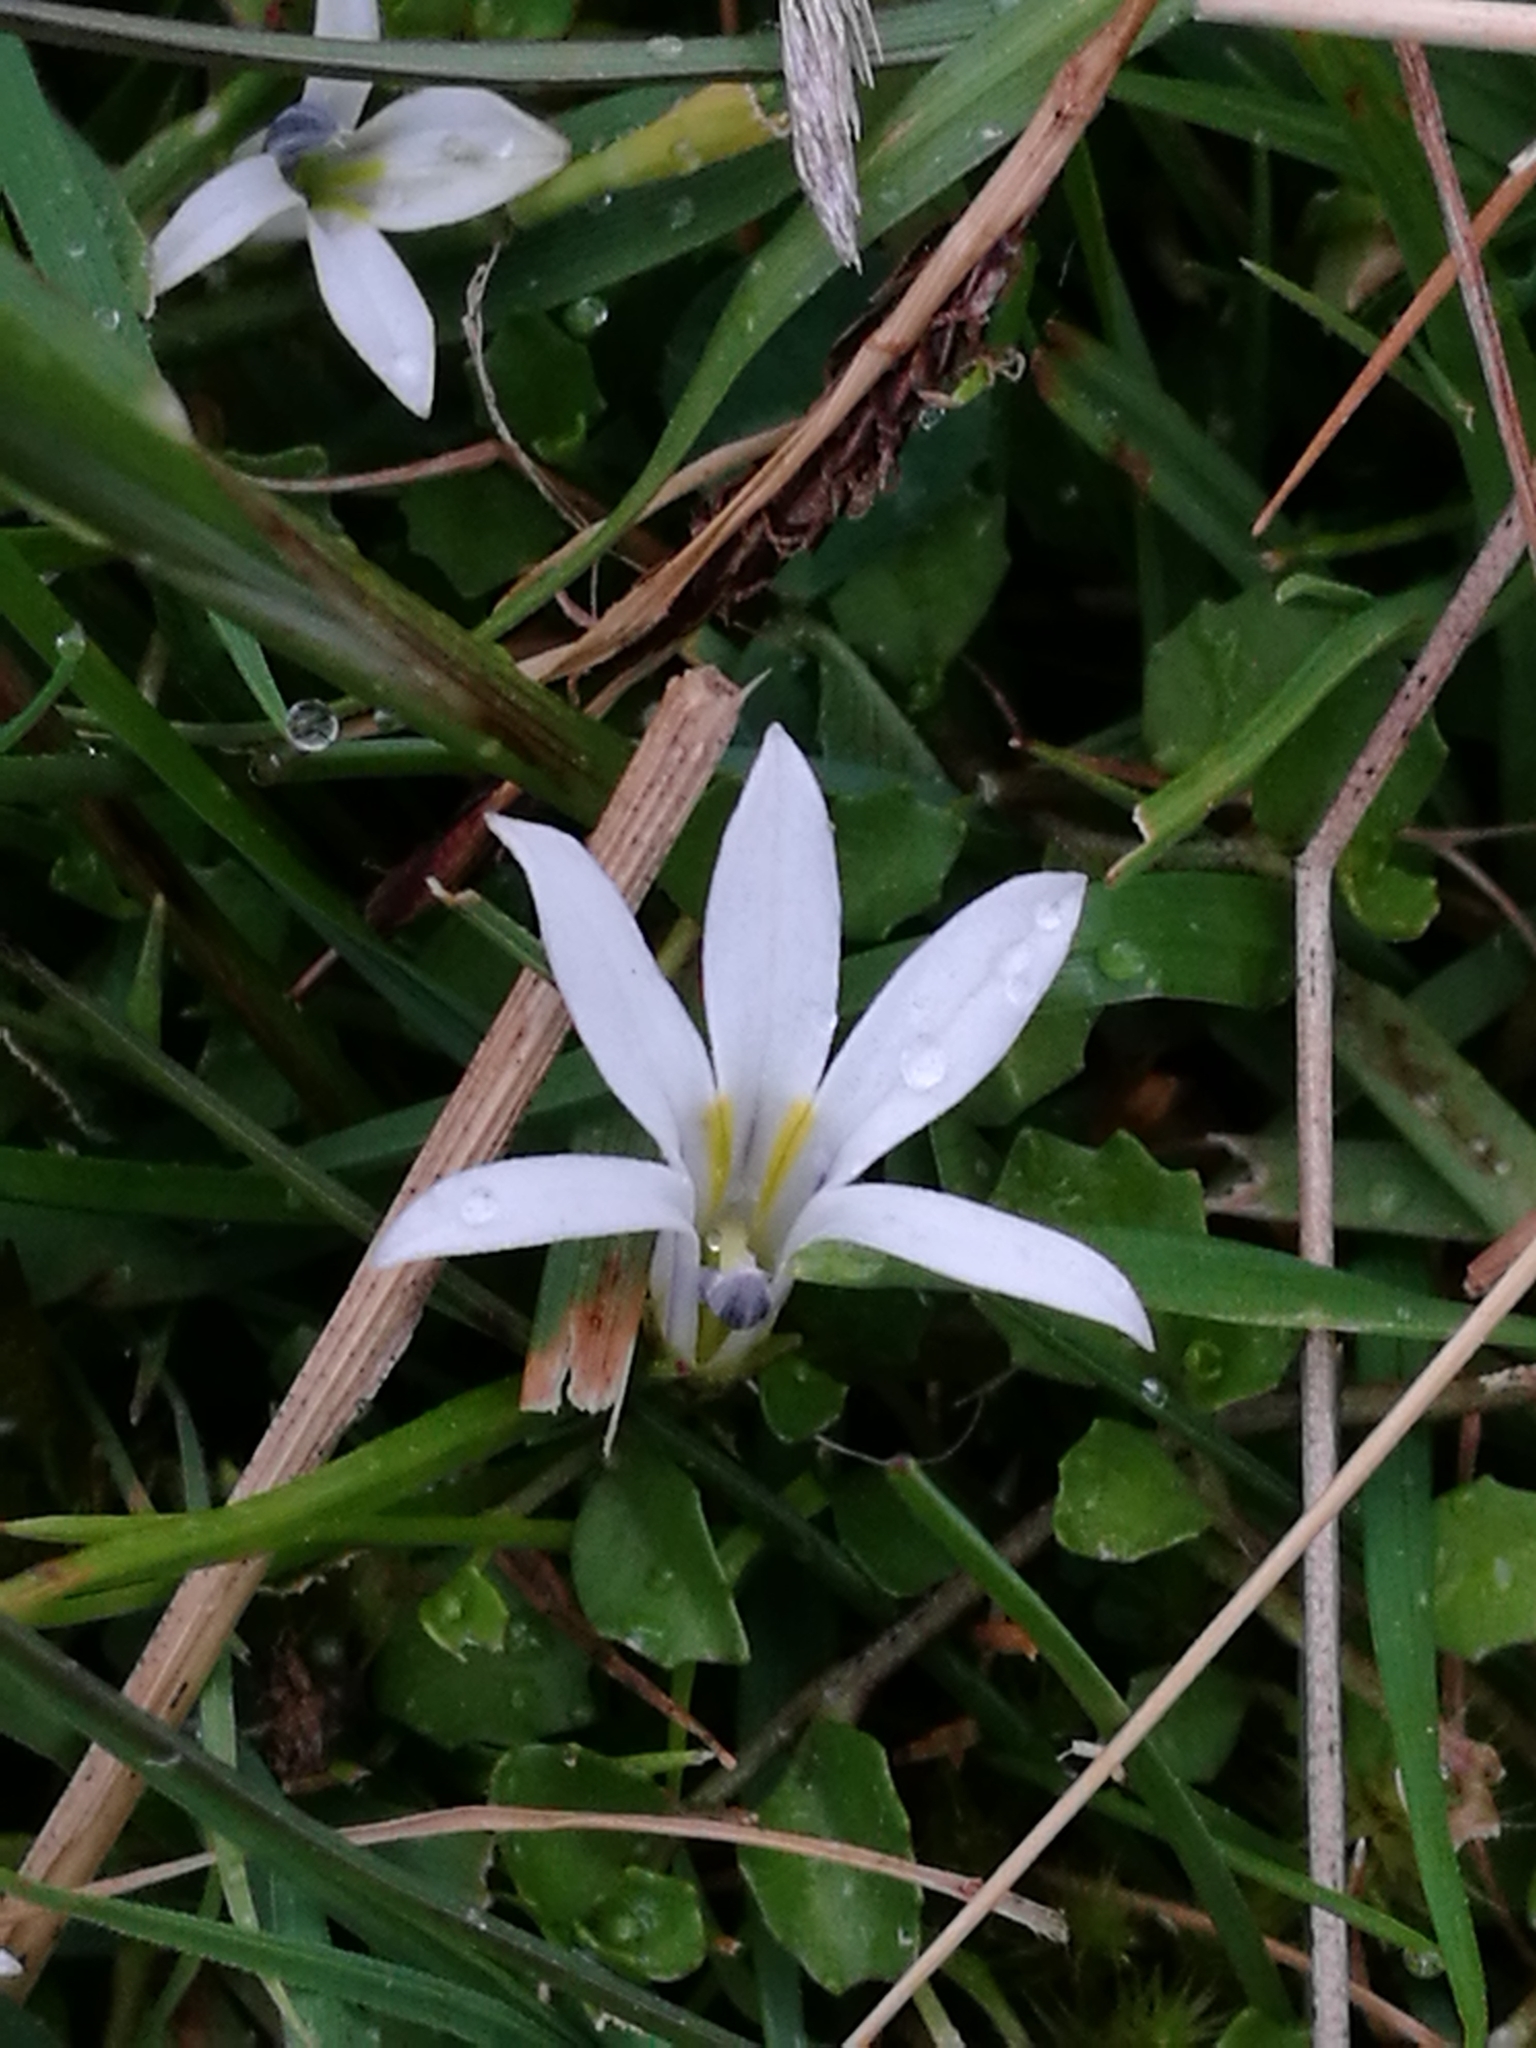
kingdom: Plantae
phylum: Tracheophyta
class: Magnoliopsida
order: Asterales
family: Campanulaceae
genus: Lobelia
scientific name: Lobelia angulata
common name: Lawn lobelia
